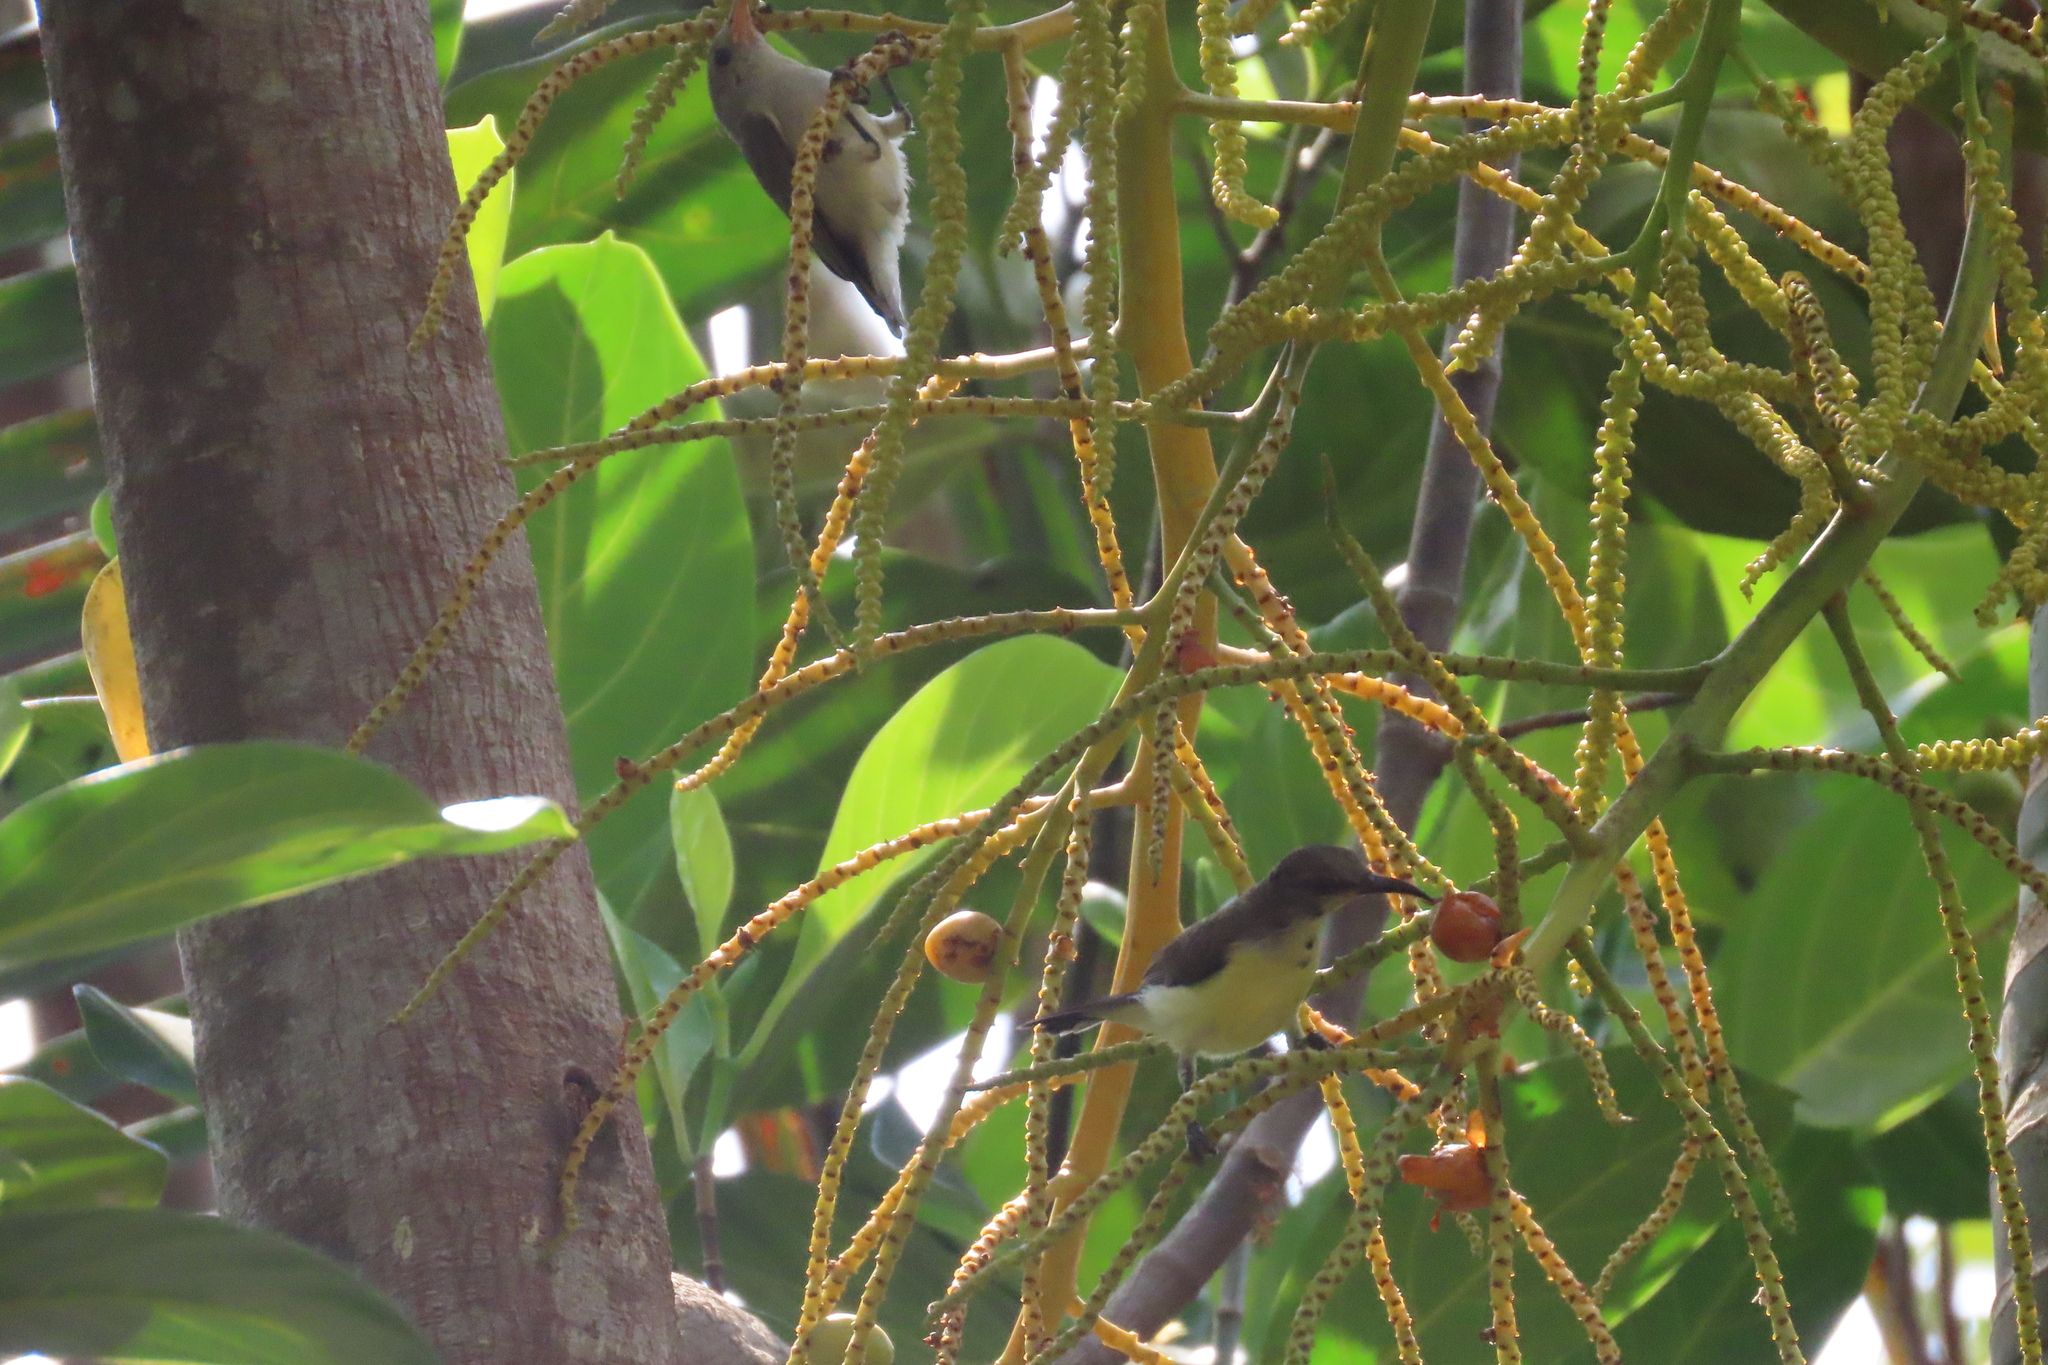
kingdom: Animalia
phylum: Chordata
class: Aves
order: Passeriformes
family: Nectariniidae
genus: Leptocoma
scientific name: Leptocoma zeylonica
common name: Purple-rumped sunbird
